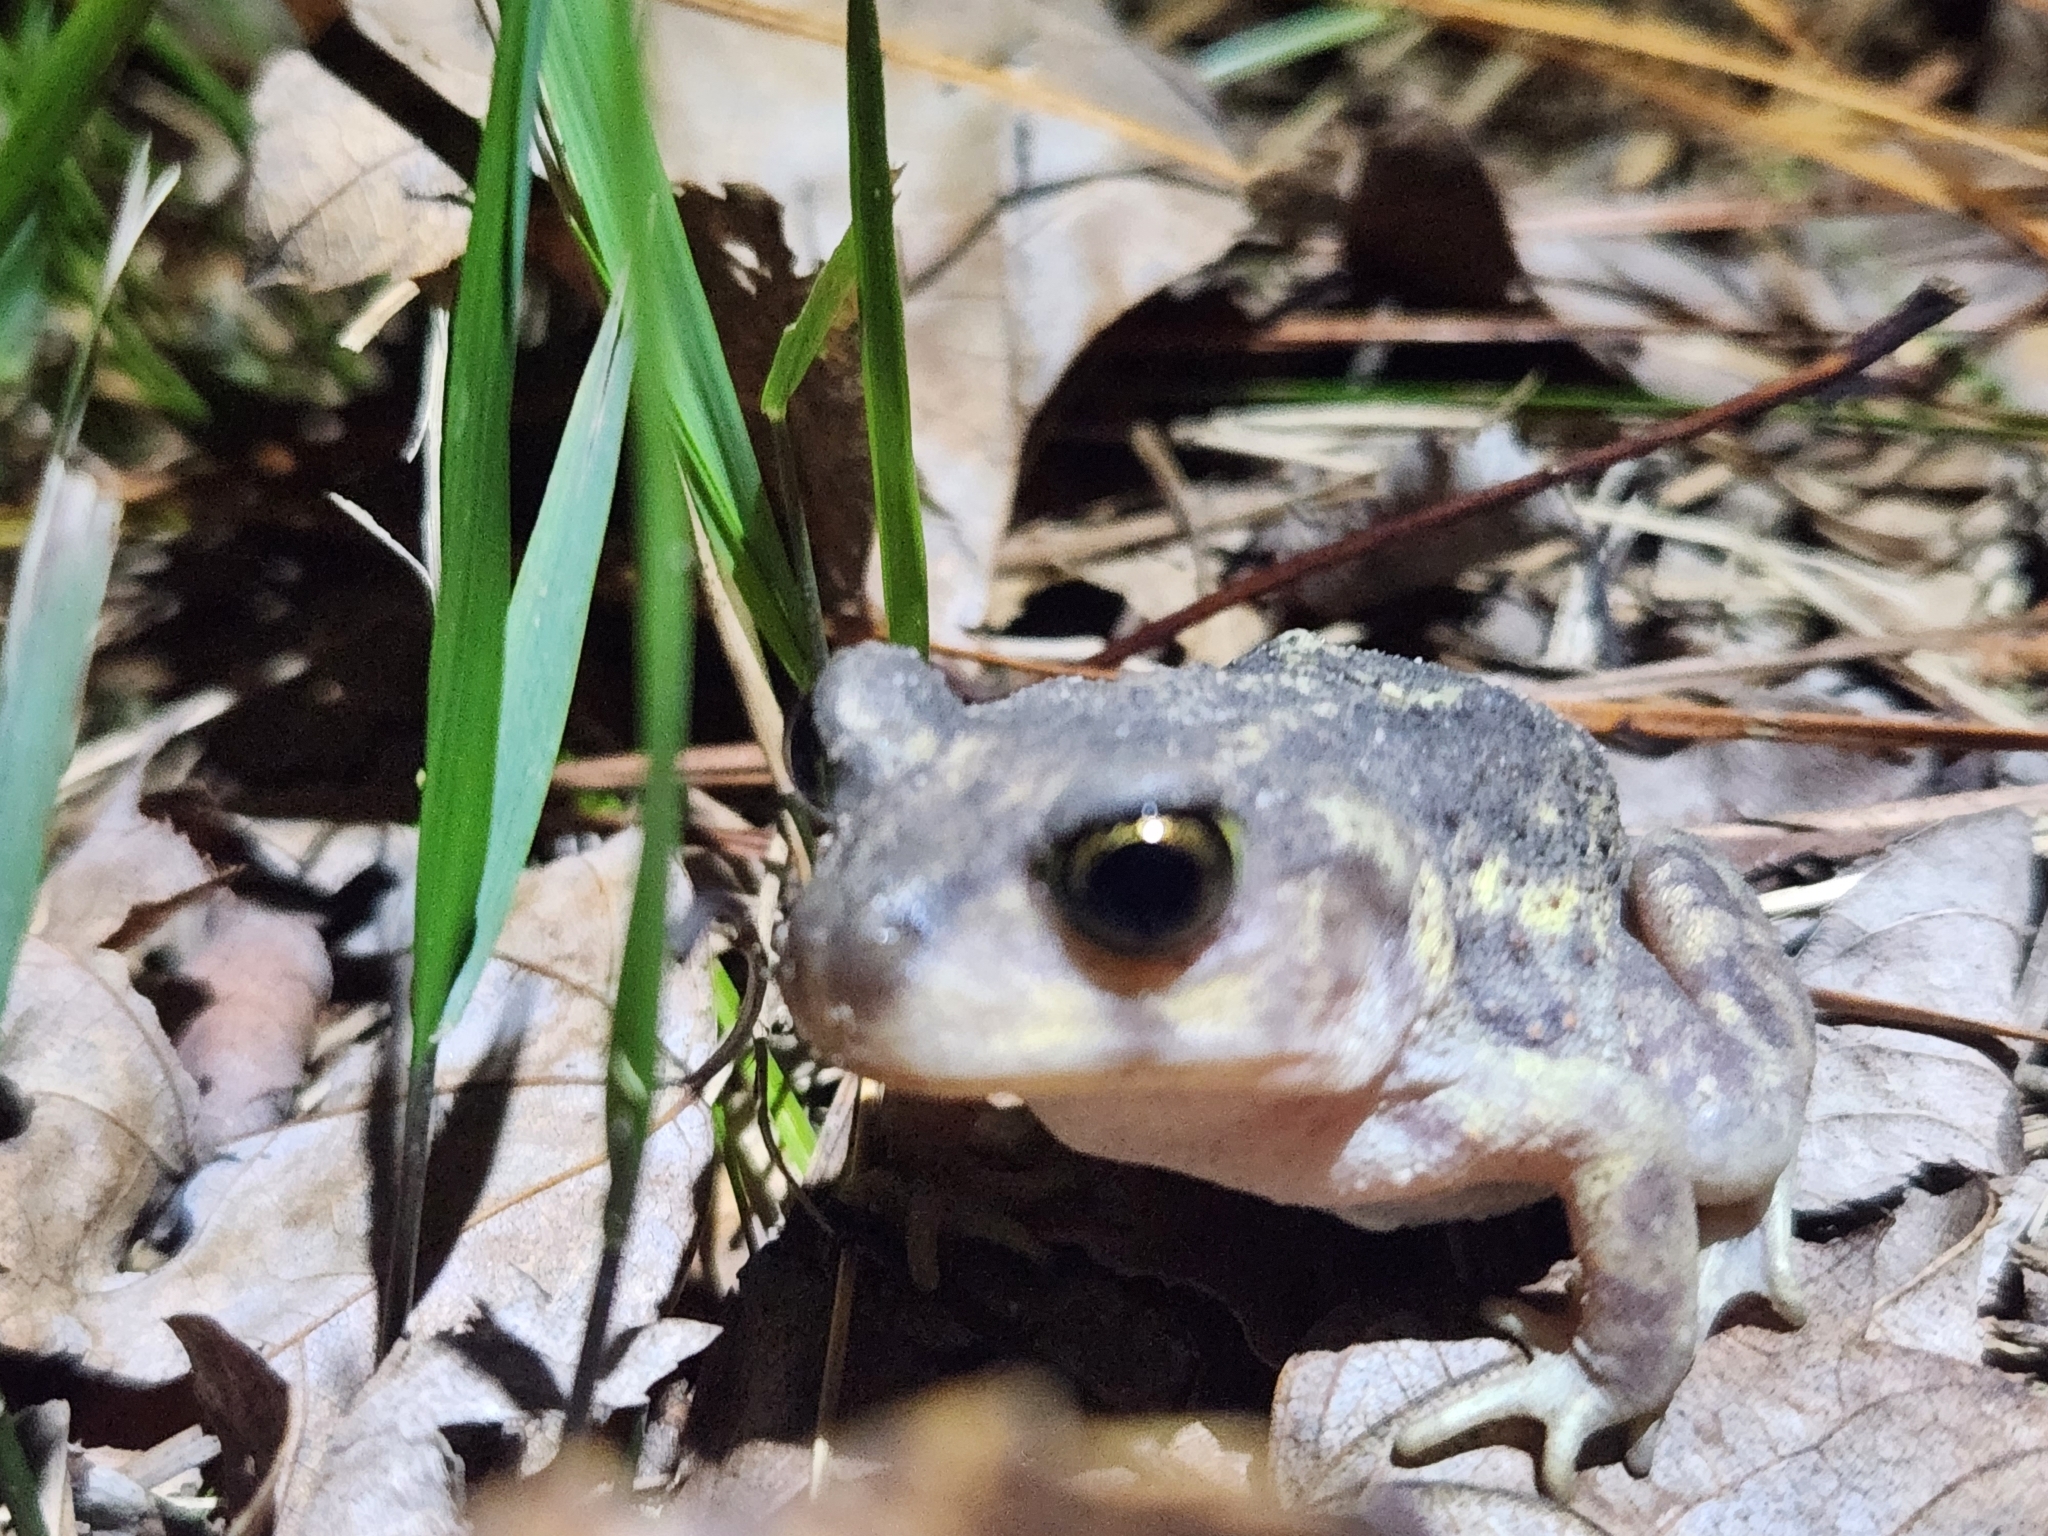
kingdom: Animalia
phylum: Chordata
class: Amphibia
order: Anura
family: Scaphiopodidae
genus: Scaphiopus
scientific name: Scaphiopus holbrookii
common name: Eastern spadefoot toad
